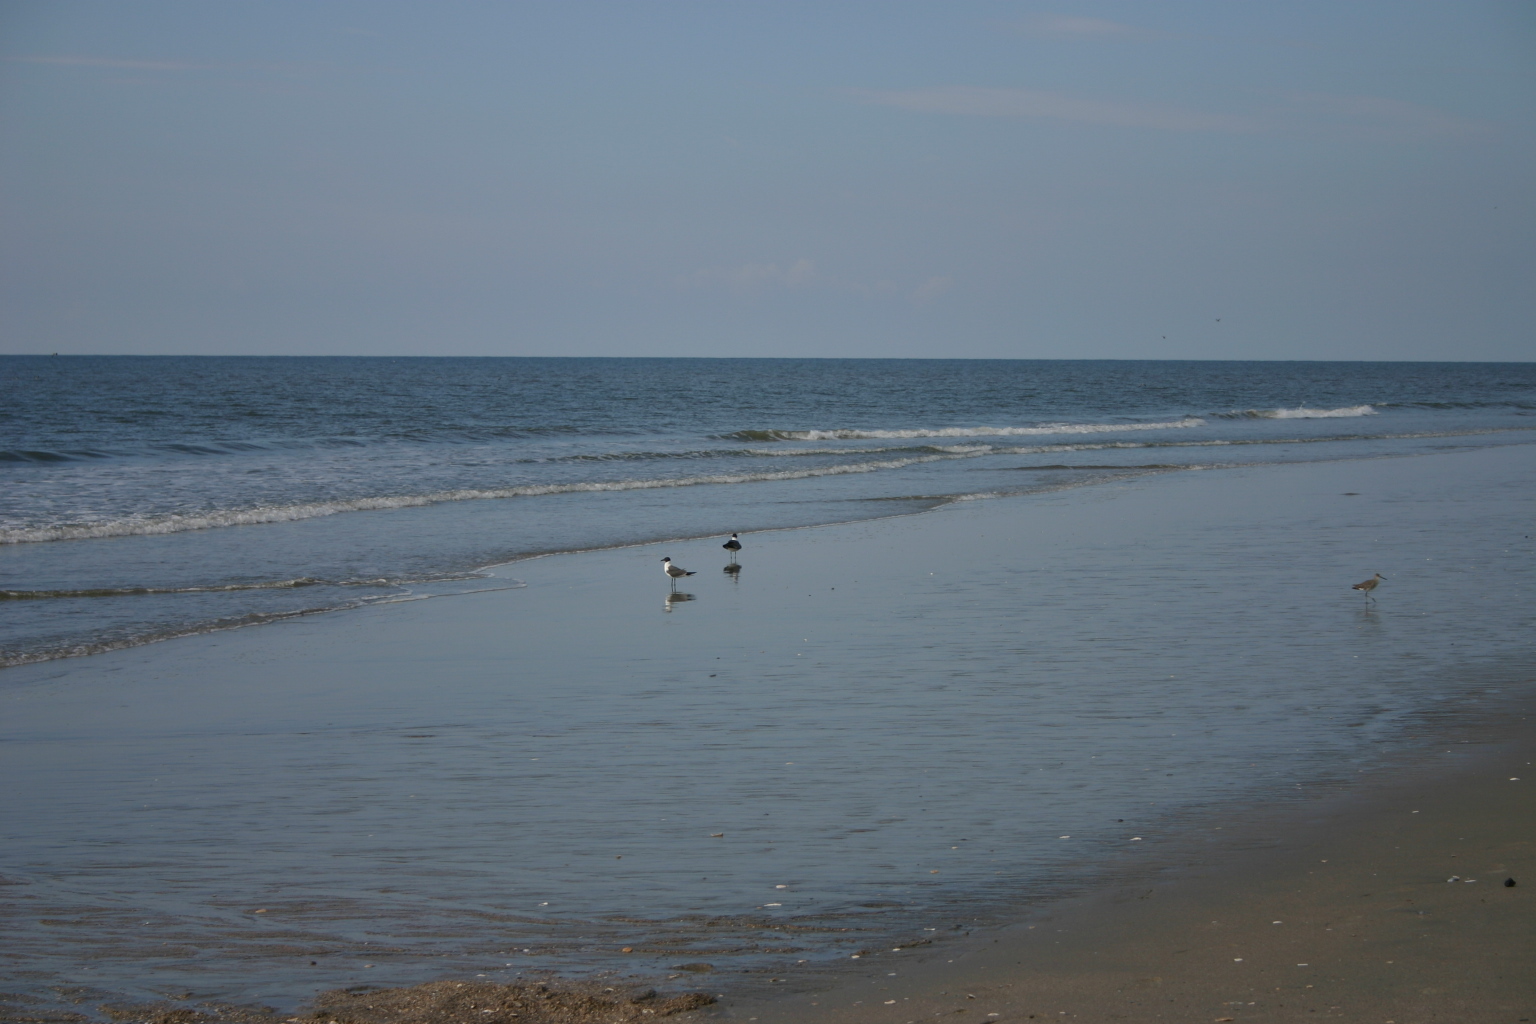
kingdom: Animalia
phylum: Chordata
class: Aves
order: Charadriiformes
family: Laridae
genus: Leucophaeus
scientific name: Leucophaeus atricilla
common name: Laughing gull
